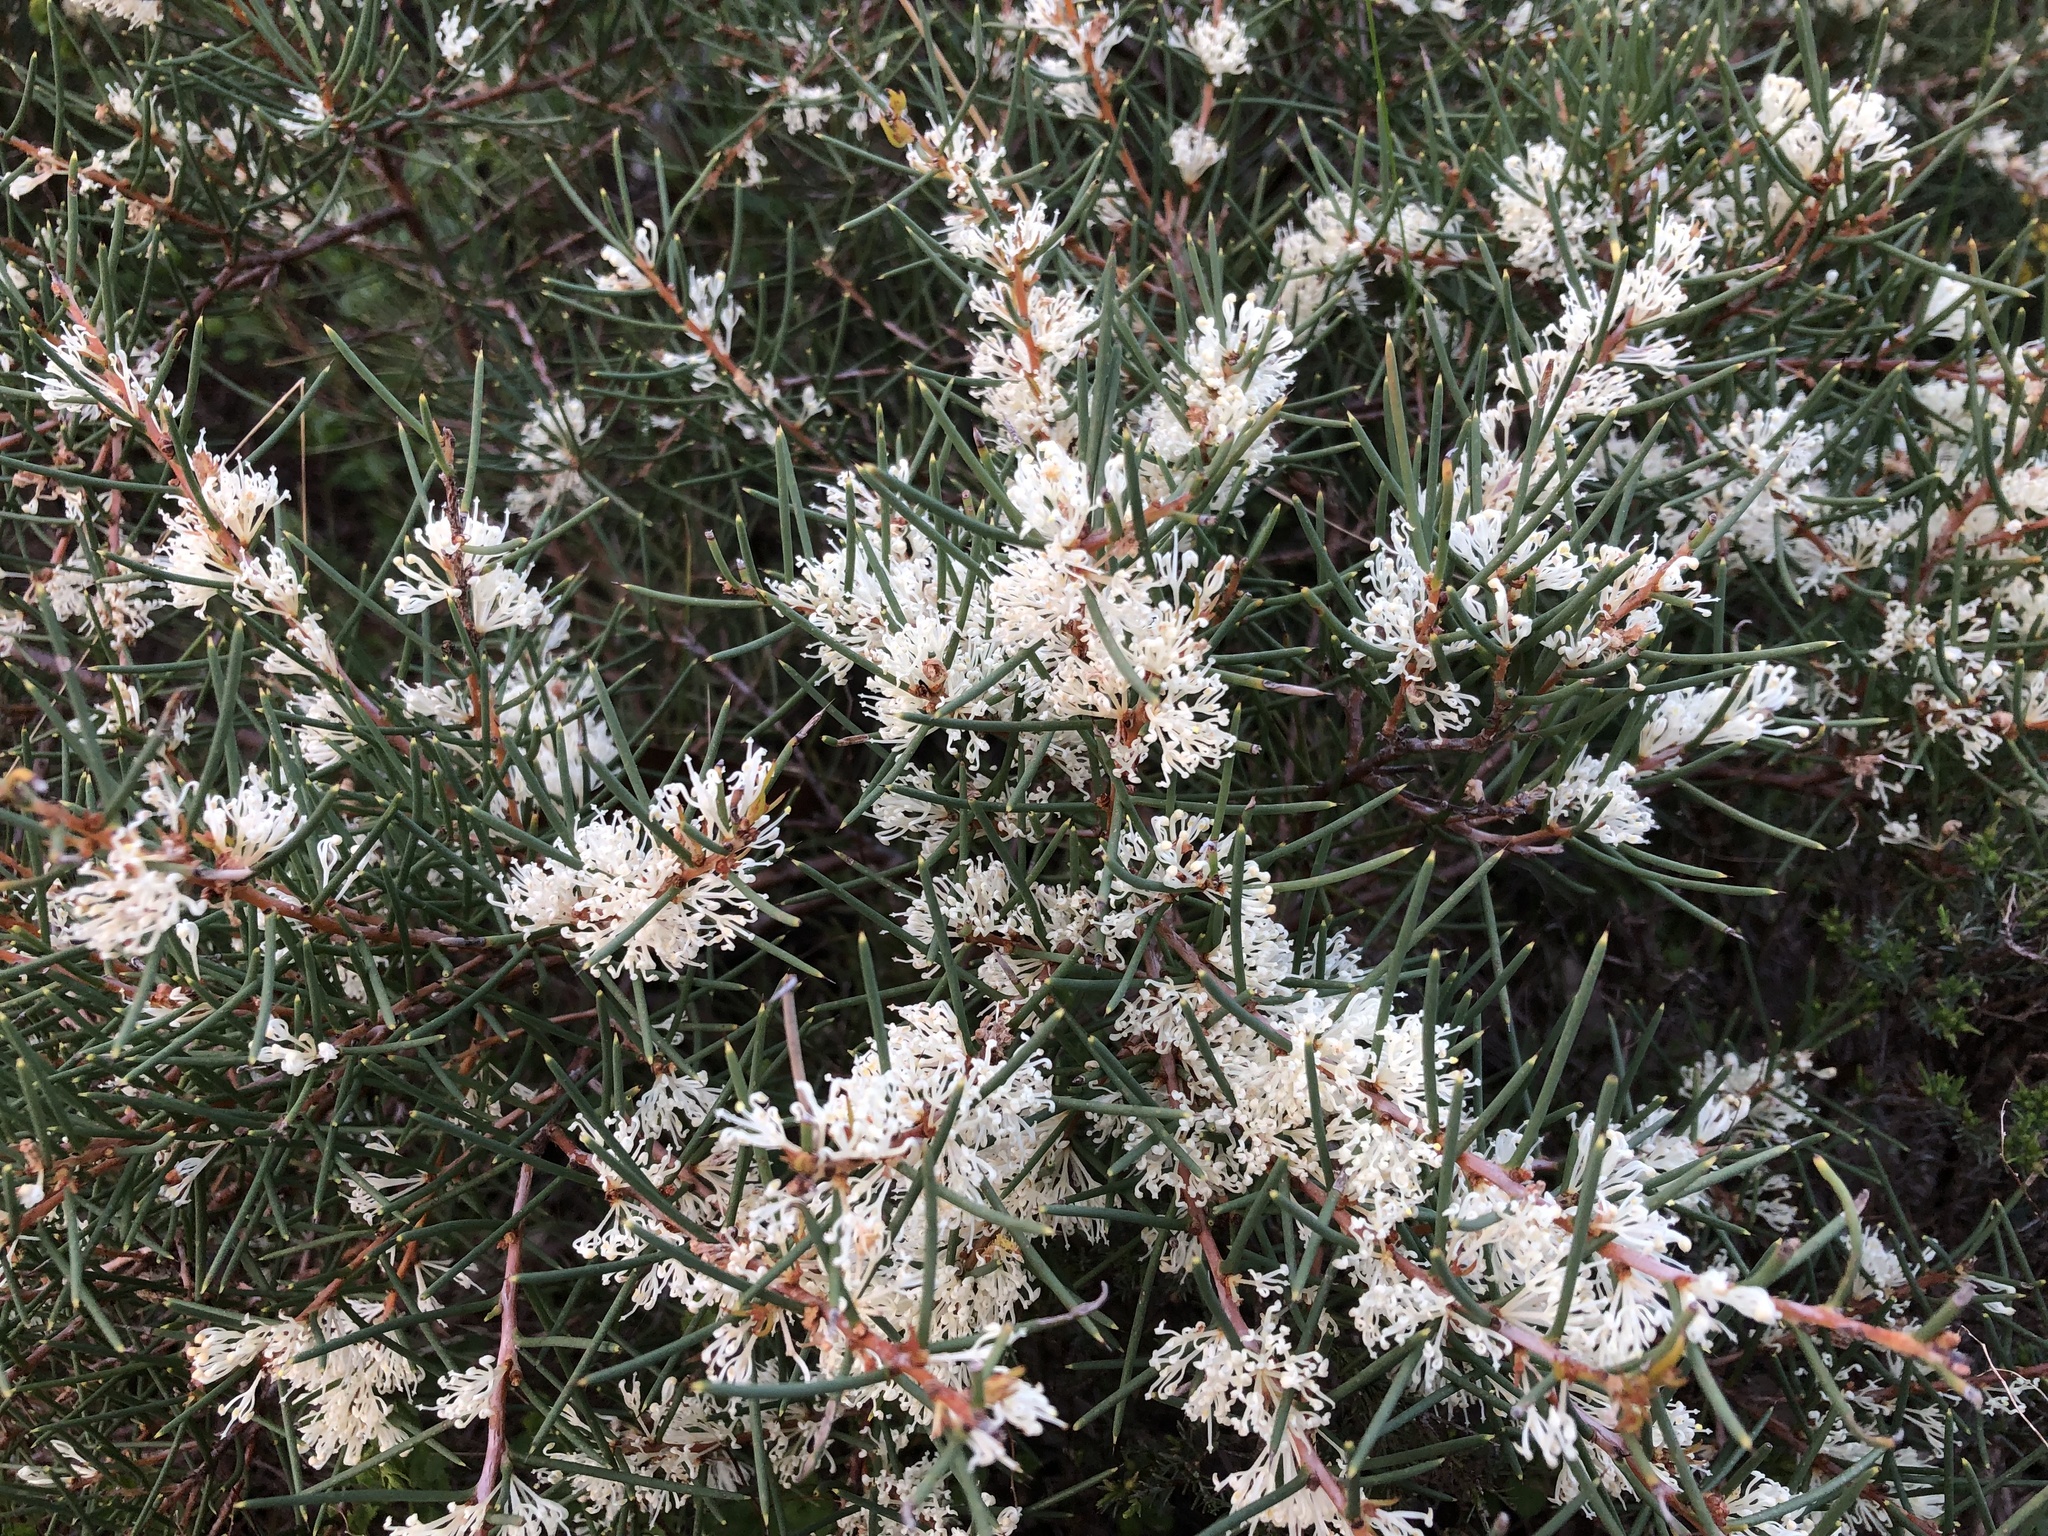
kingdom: Plantae
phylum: Tracheophyta
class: Magnoliopsida
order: Proteales
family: Proteaceae
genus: Hakea
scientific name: Hakea rugosa
